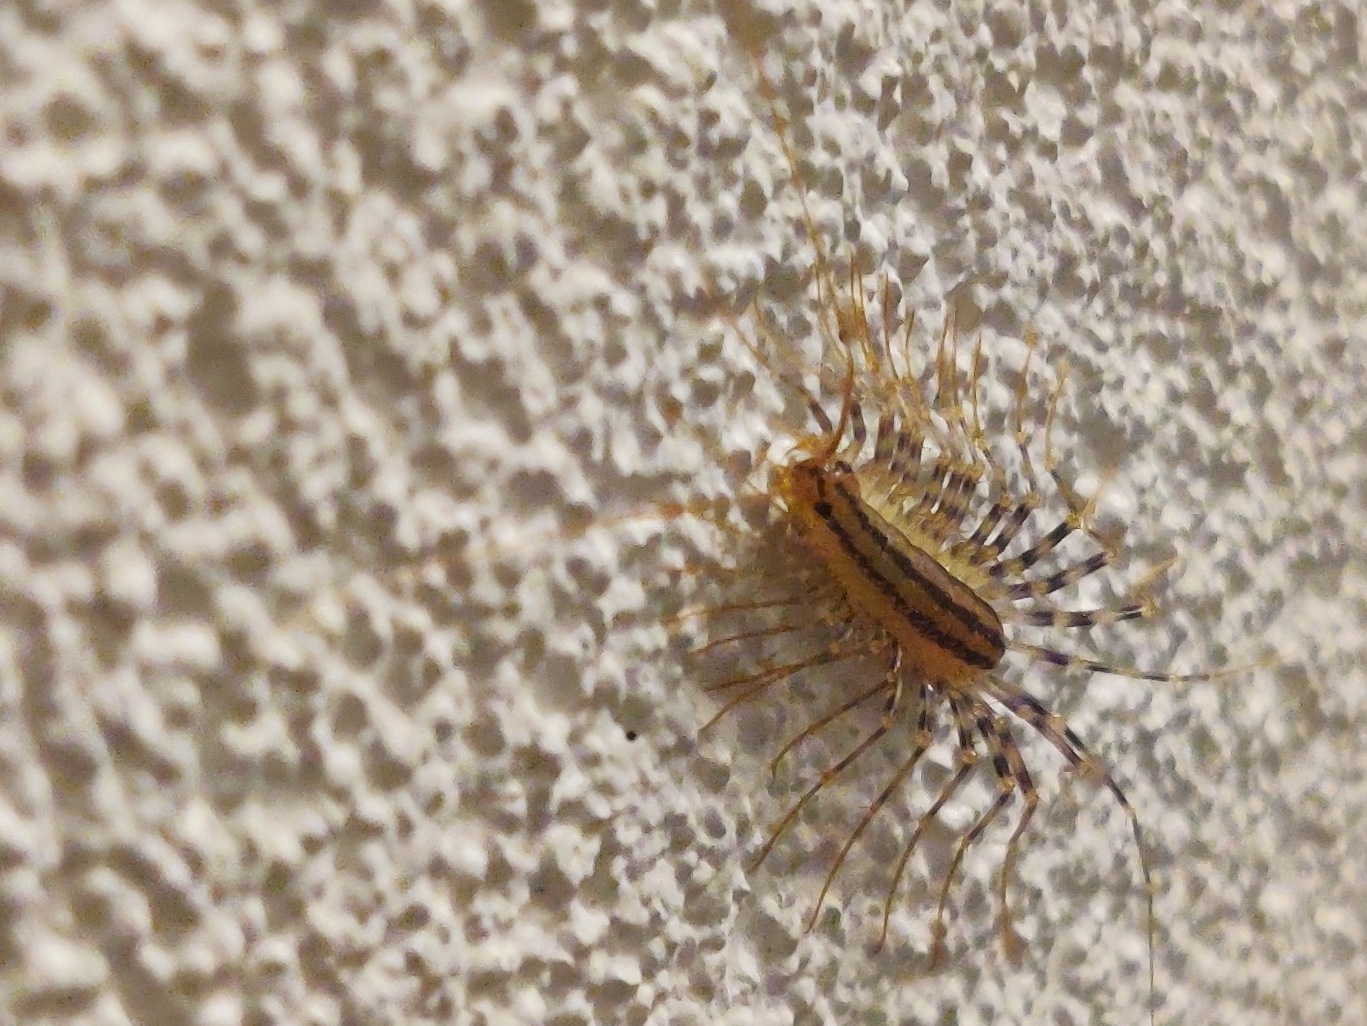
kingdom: Animalia
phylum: Arthropoda
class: Chilopoda
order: Scutigeromorpha
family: Scutigeridae
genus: Scutigera
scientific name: Scutigera coleoptrata
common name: House centipede
